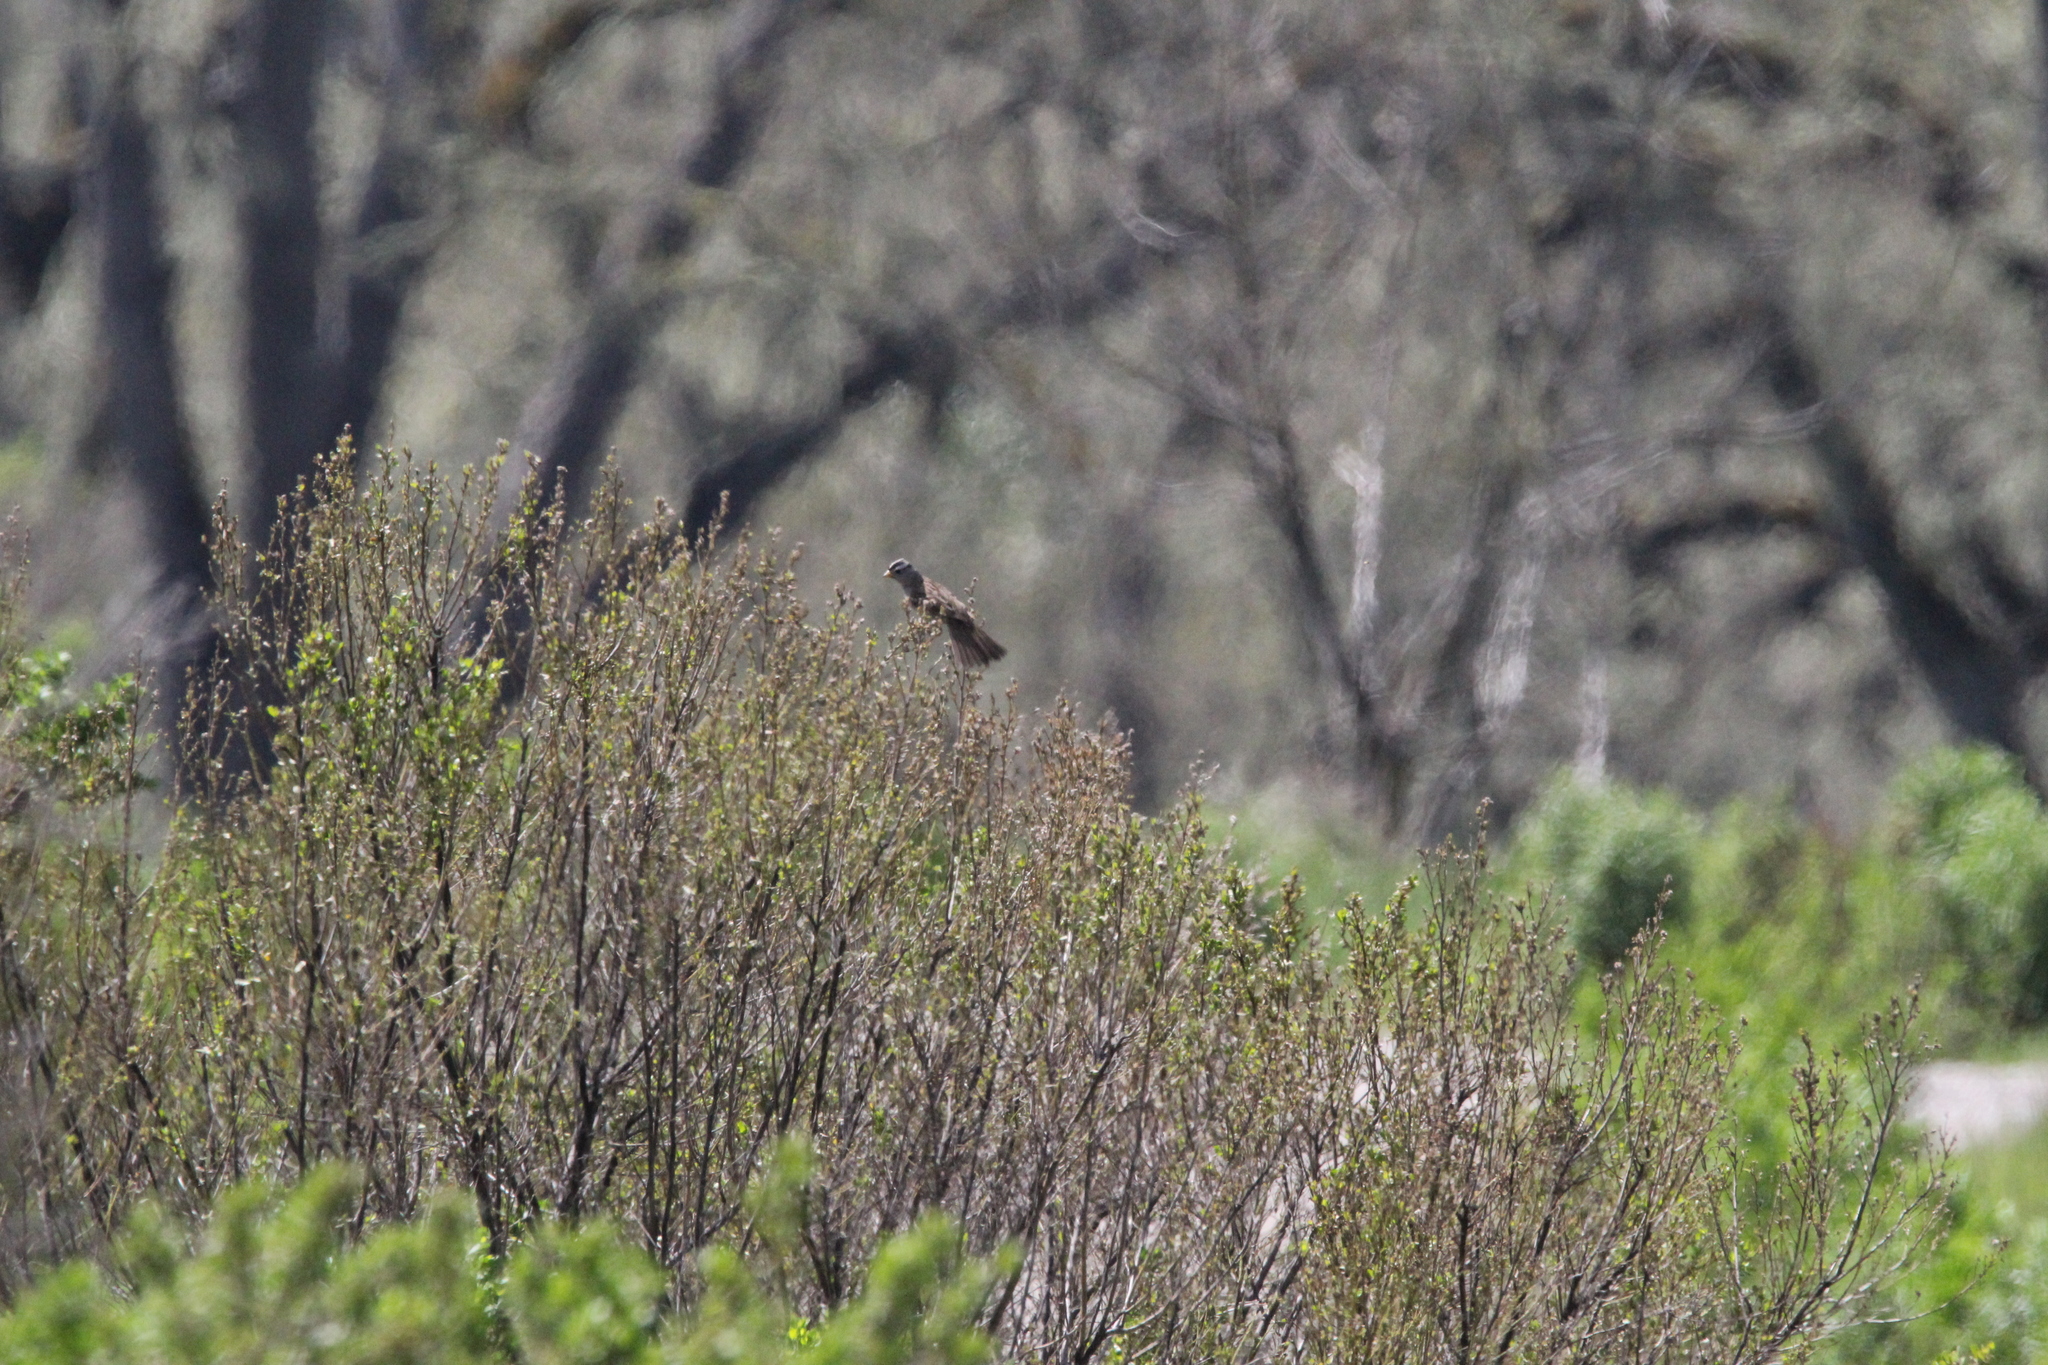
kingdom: Animalia
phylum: Chordata
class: Aves
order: Passeriformes
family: Passerellidae
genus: Zonotrichia
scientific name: Zonotrichia leucophrys
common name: White-crowned sparrow
